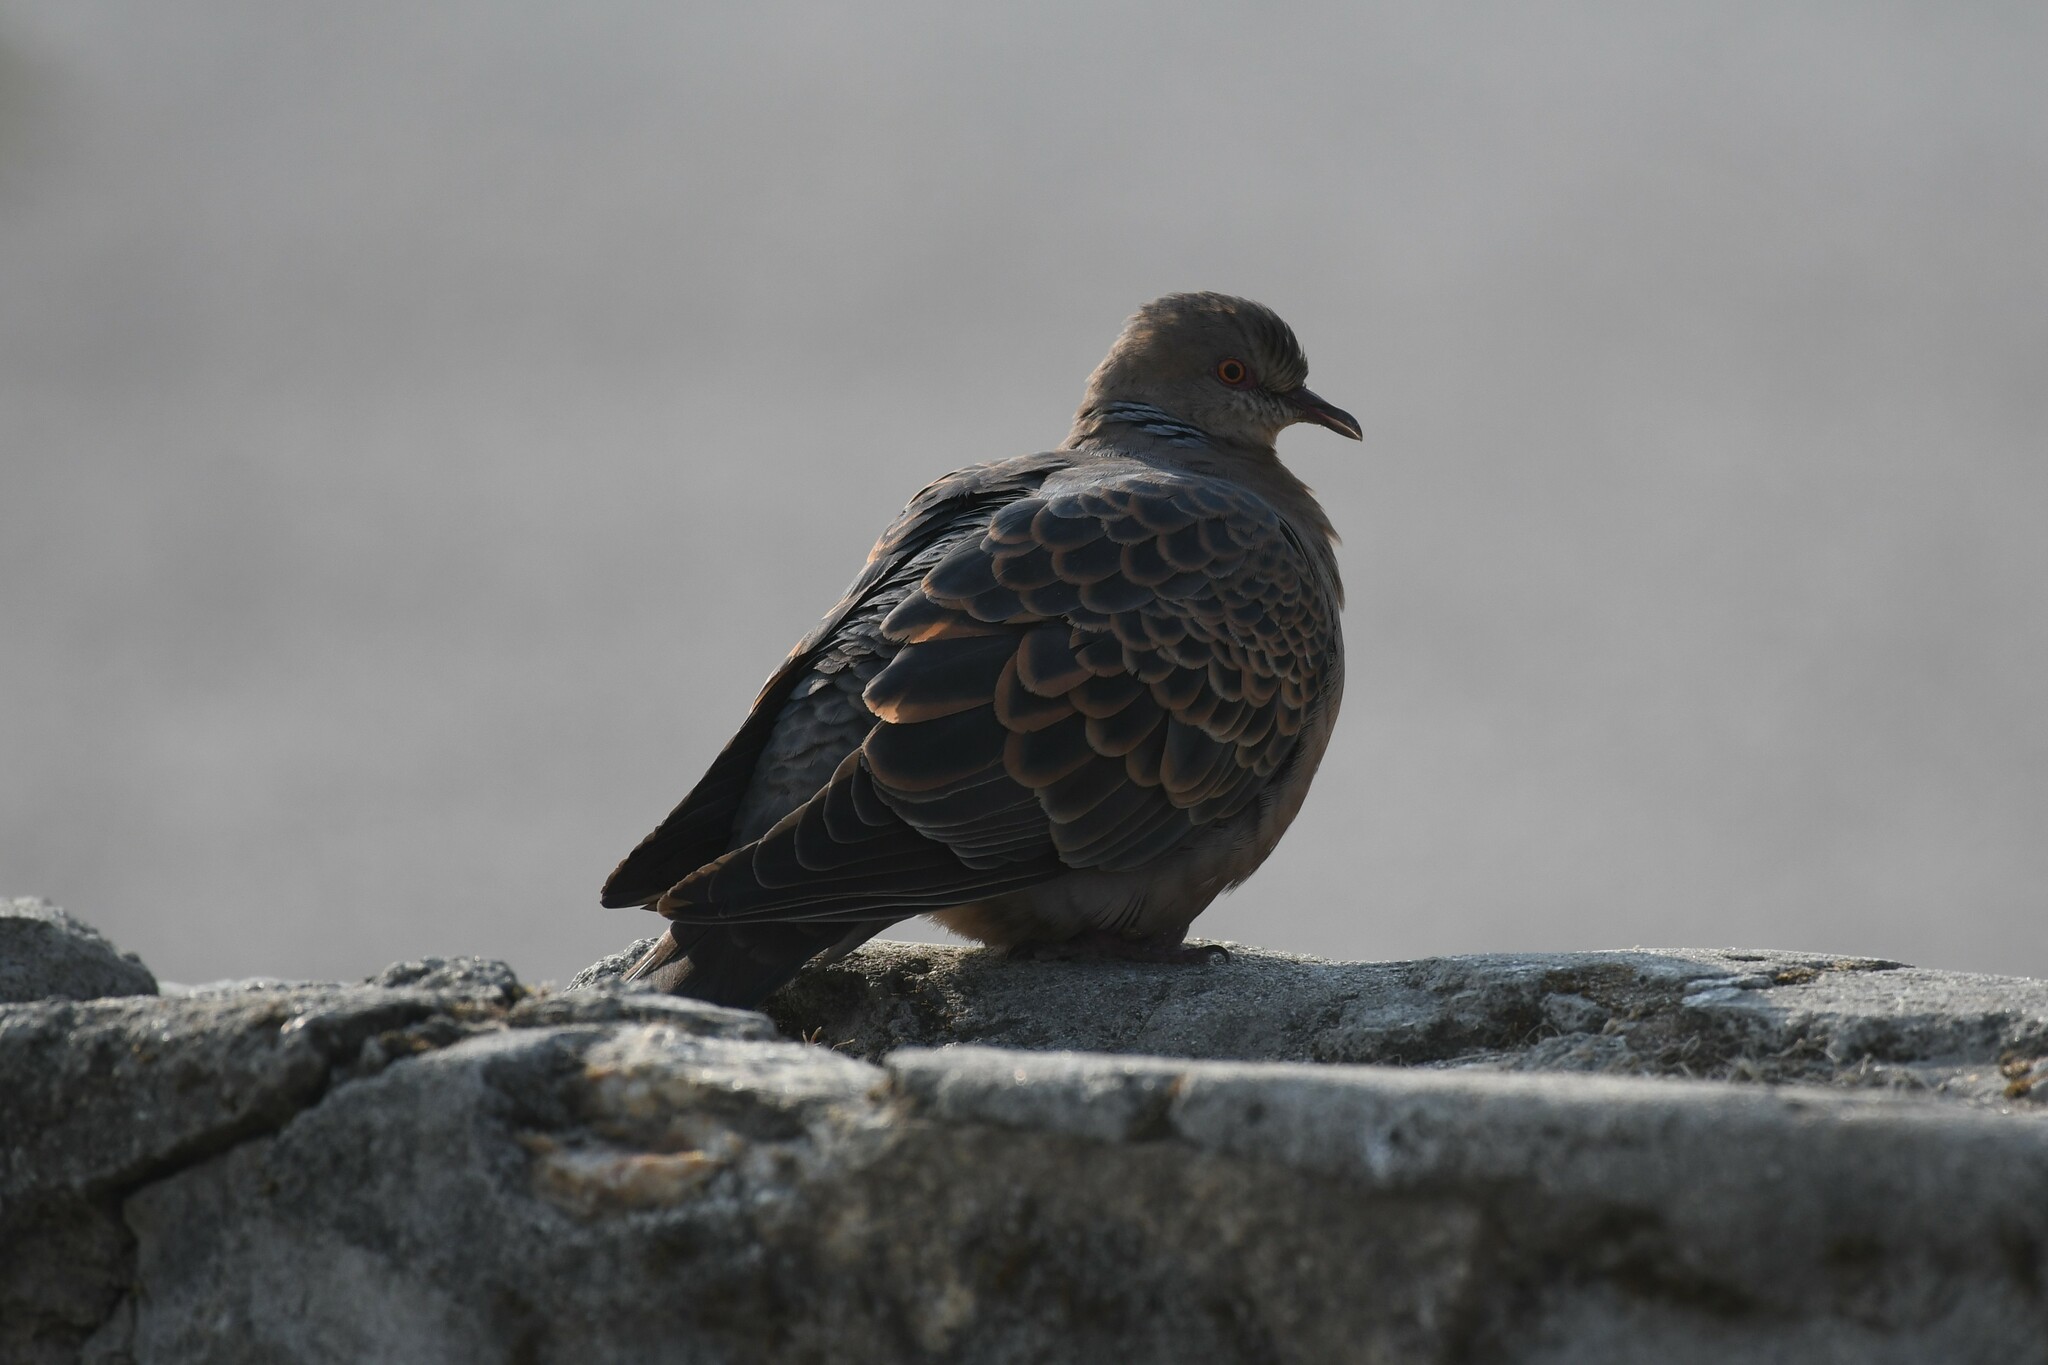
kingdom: Animalia
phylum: Chordata
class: Aves
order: Columbiformes
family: Columbidae
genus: Streptopelia
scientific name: Streptopelia orientalis
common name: Oriental turtle dove
